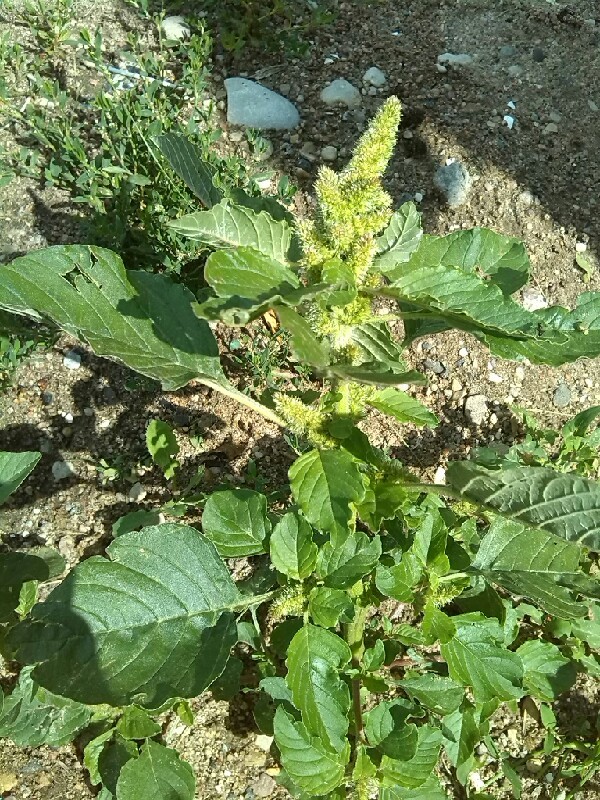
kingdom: Plantae
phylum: Tracheophyta
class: Magnoliopsida
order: Caryophyllales
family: Amaranthaceae
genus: Amaranthus
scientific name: Amaranthus retroflexus
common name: Redroot amaranth
